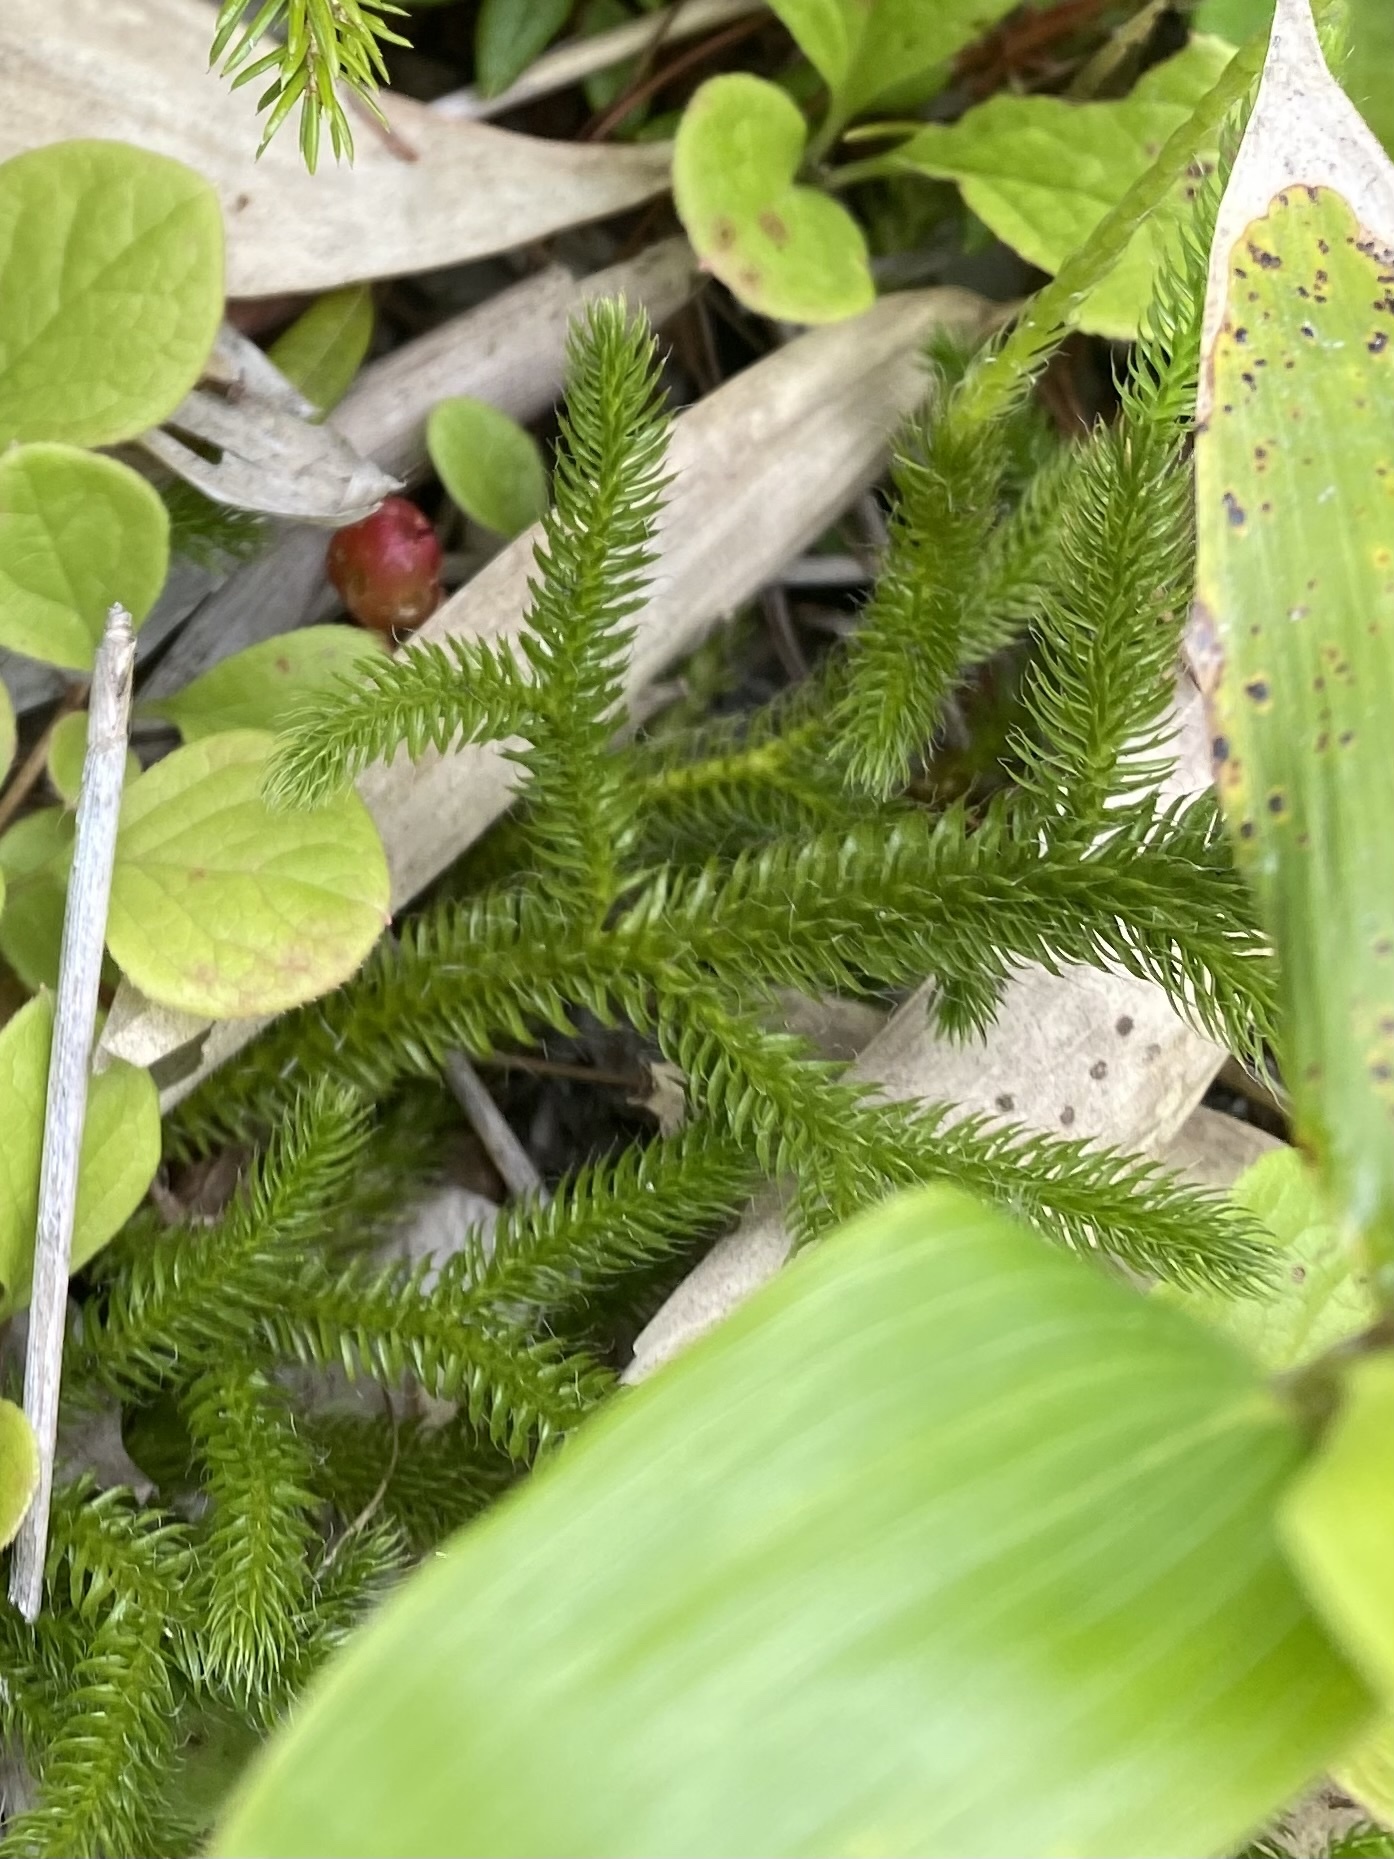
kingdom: Plantae
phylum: Tracheophyta
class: Lycopodiopsida
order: Lycopodiales
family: Lycopodiaceae
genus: Lycopodium
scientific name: Lycopodium clavatum
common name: Stag's-horn clubmoss
